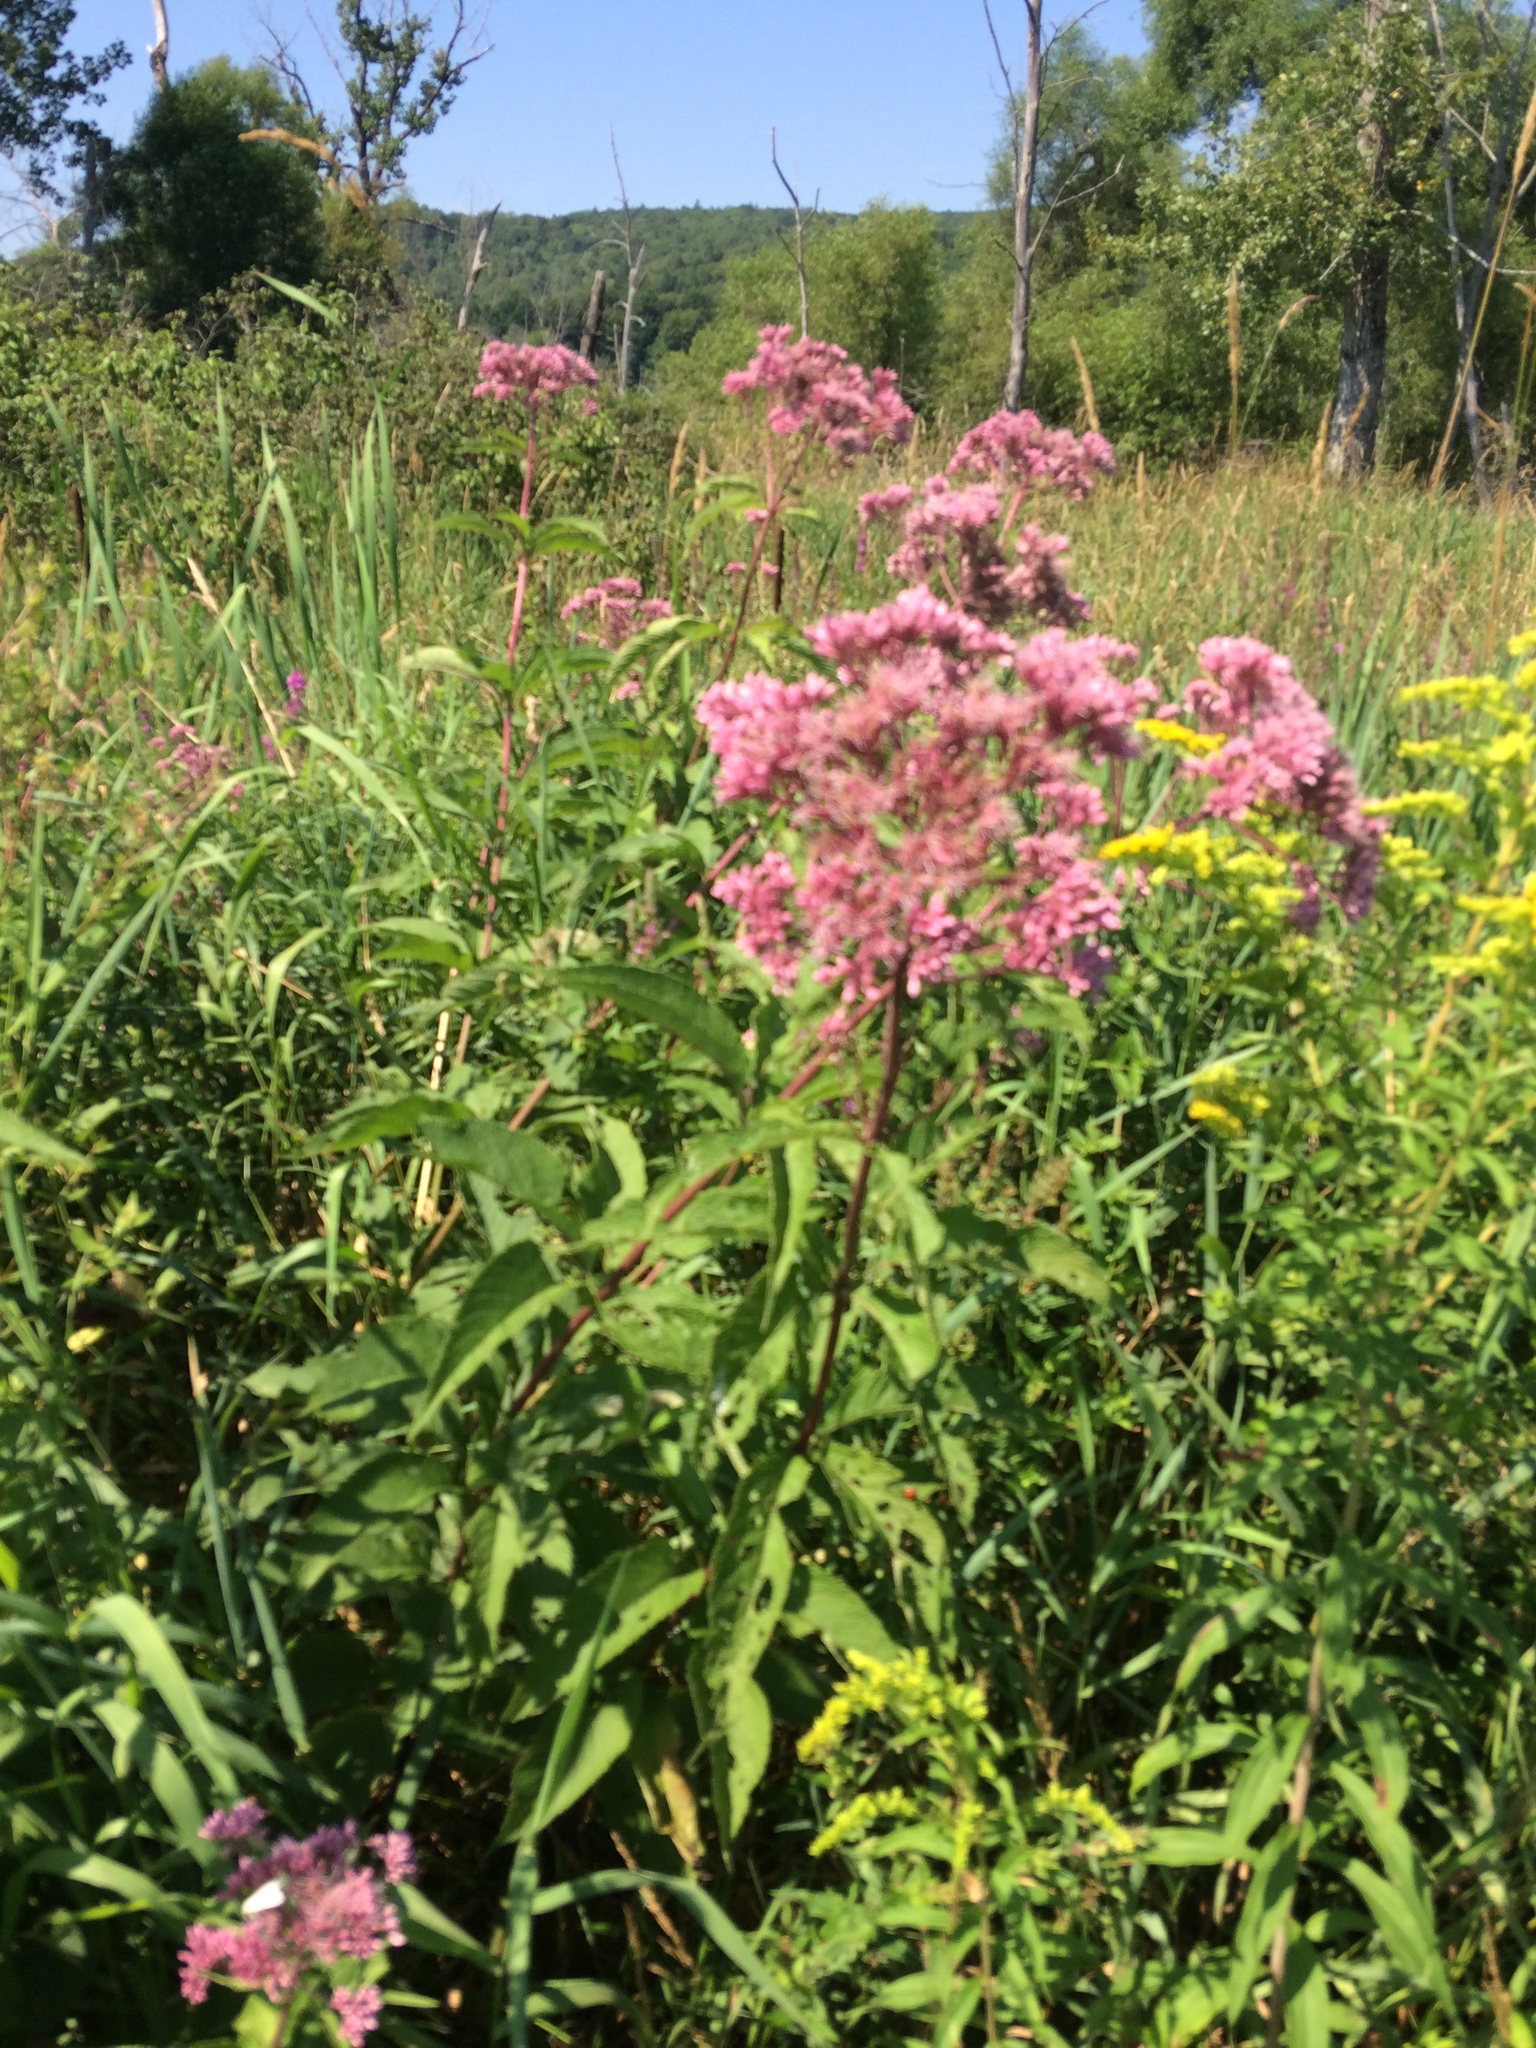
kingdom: Plantae
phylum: Tracheophyta
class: Magnoliopsida
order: Asterales
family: Asteraceae
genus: Eutrochium
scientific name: Eutrochium maculatum
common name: Spotted joe pye weed
